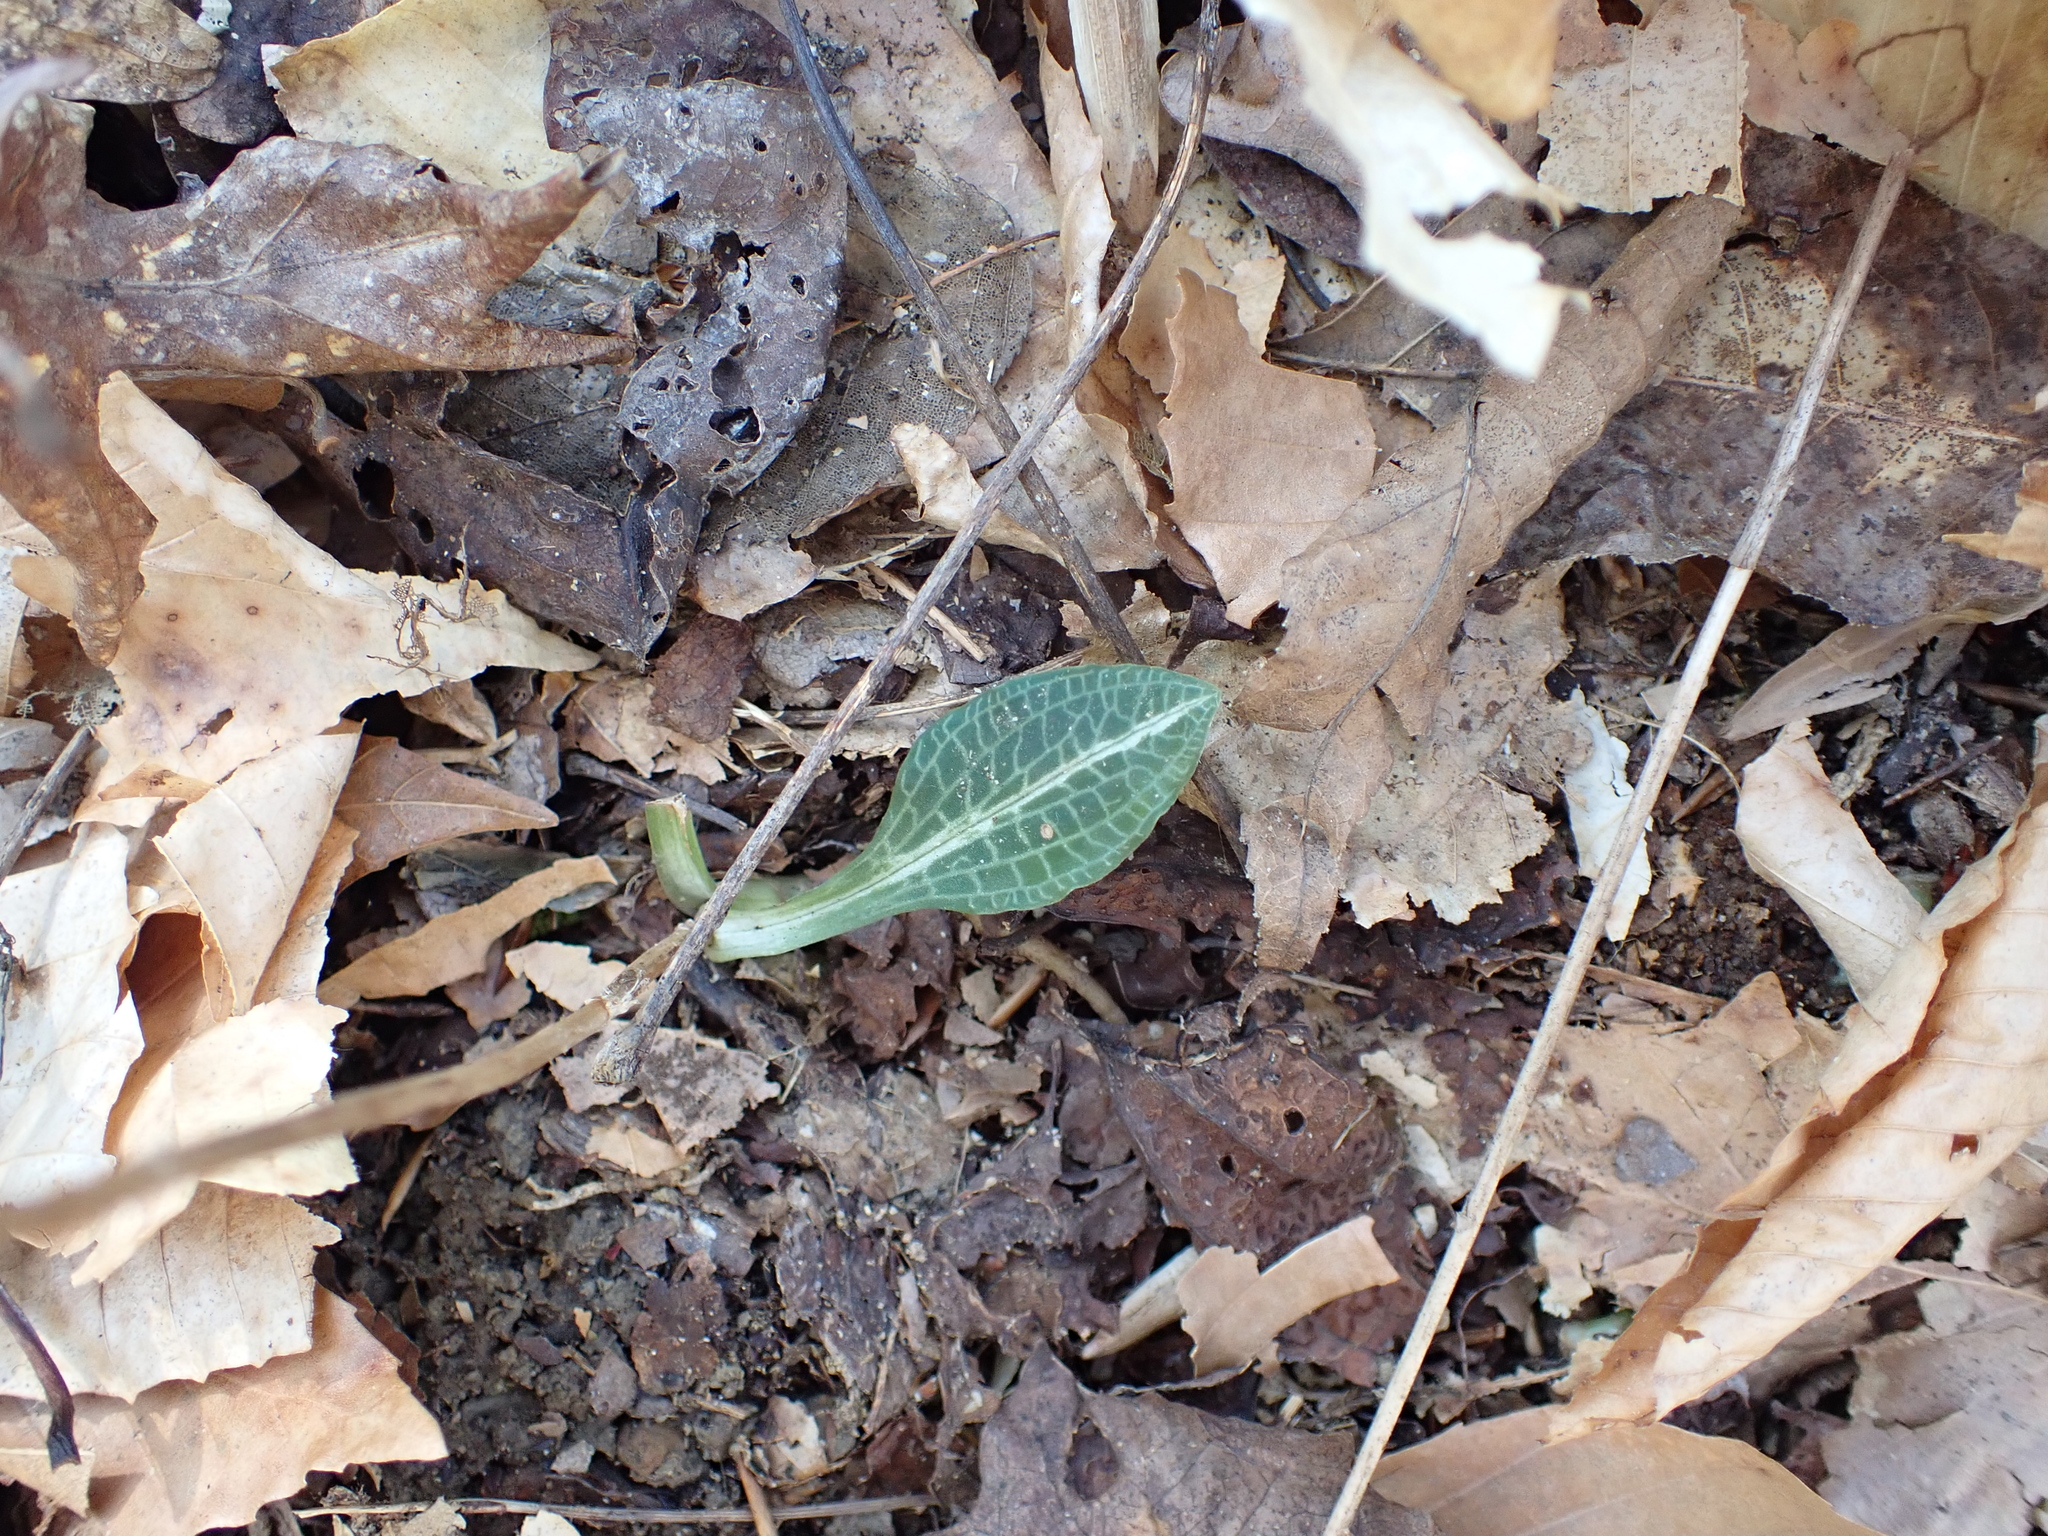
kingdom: Plantae
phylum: Tracheophyta
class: Liliopsida
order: Asparagales
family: Orchidaceae
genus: Goodyera
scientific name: Goodyera pubescens
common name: Downy rattlesnake-plantain
